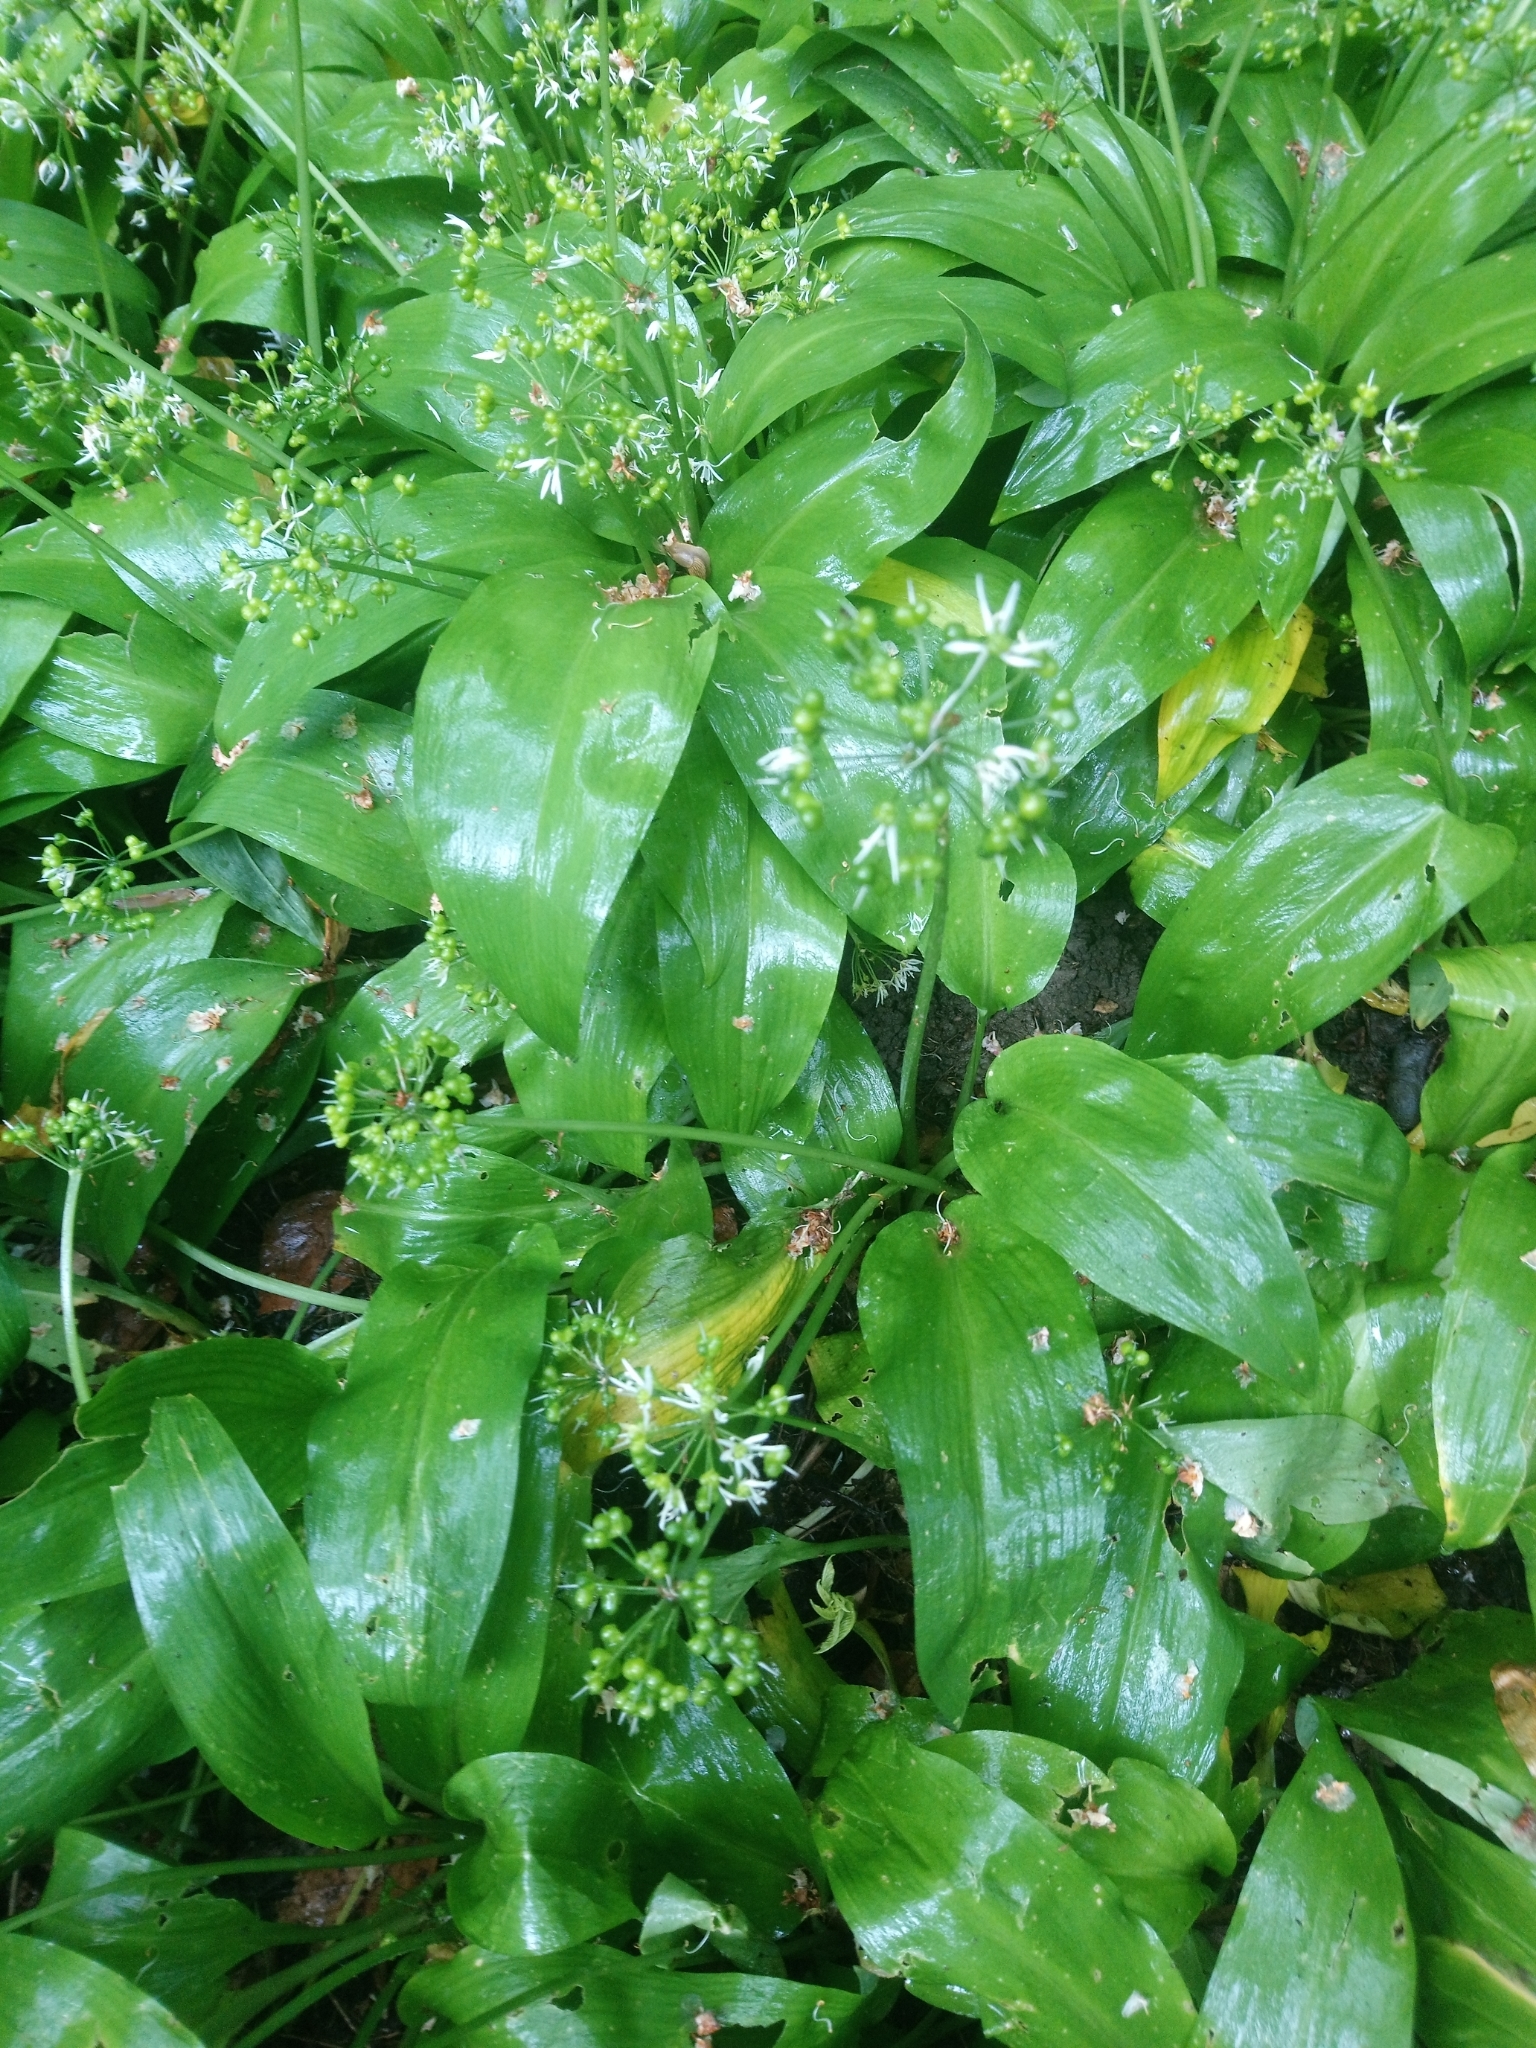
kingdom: Plantae
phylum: Tracheophyta
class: Liliopsida
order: Asparagales
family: Amaryllidaceae
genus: Allium
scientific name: Allium ursinum
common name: Ramsons
